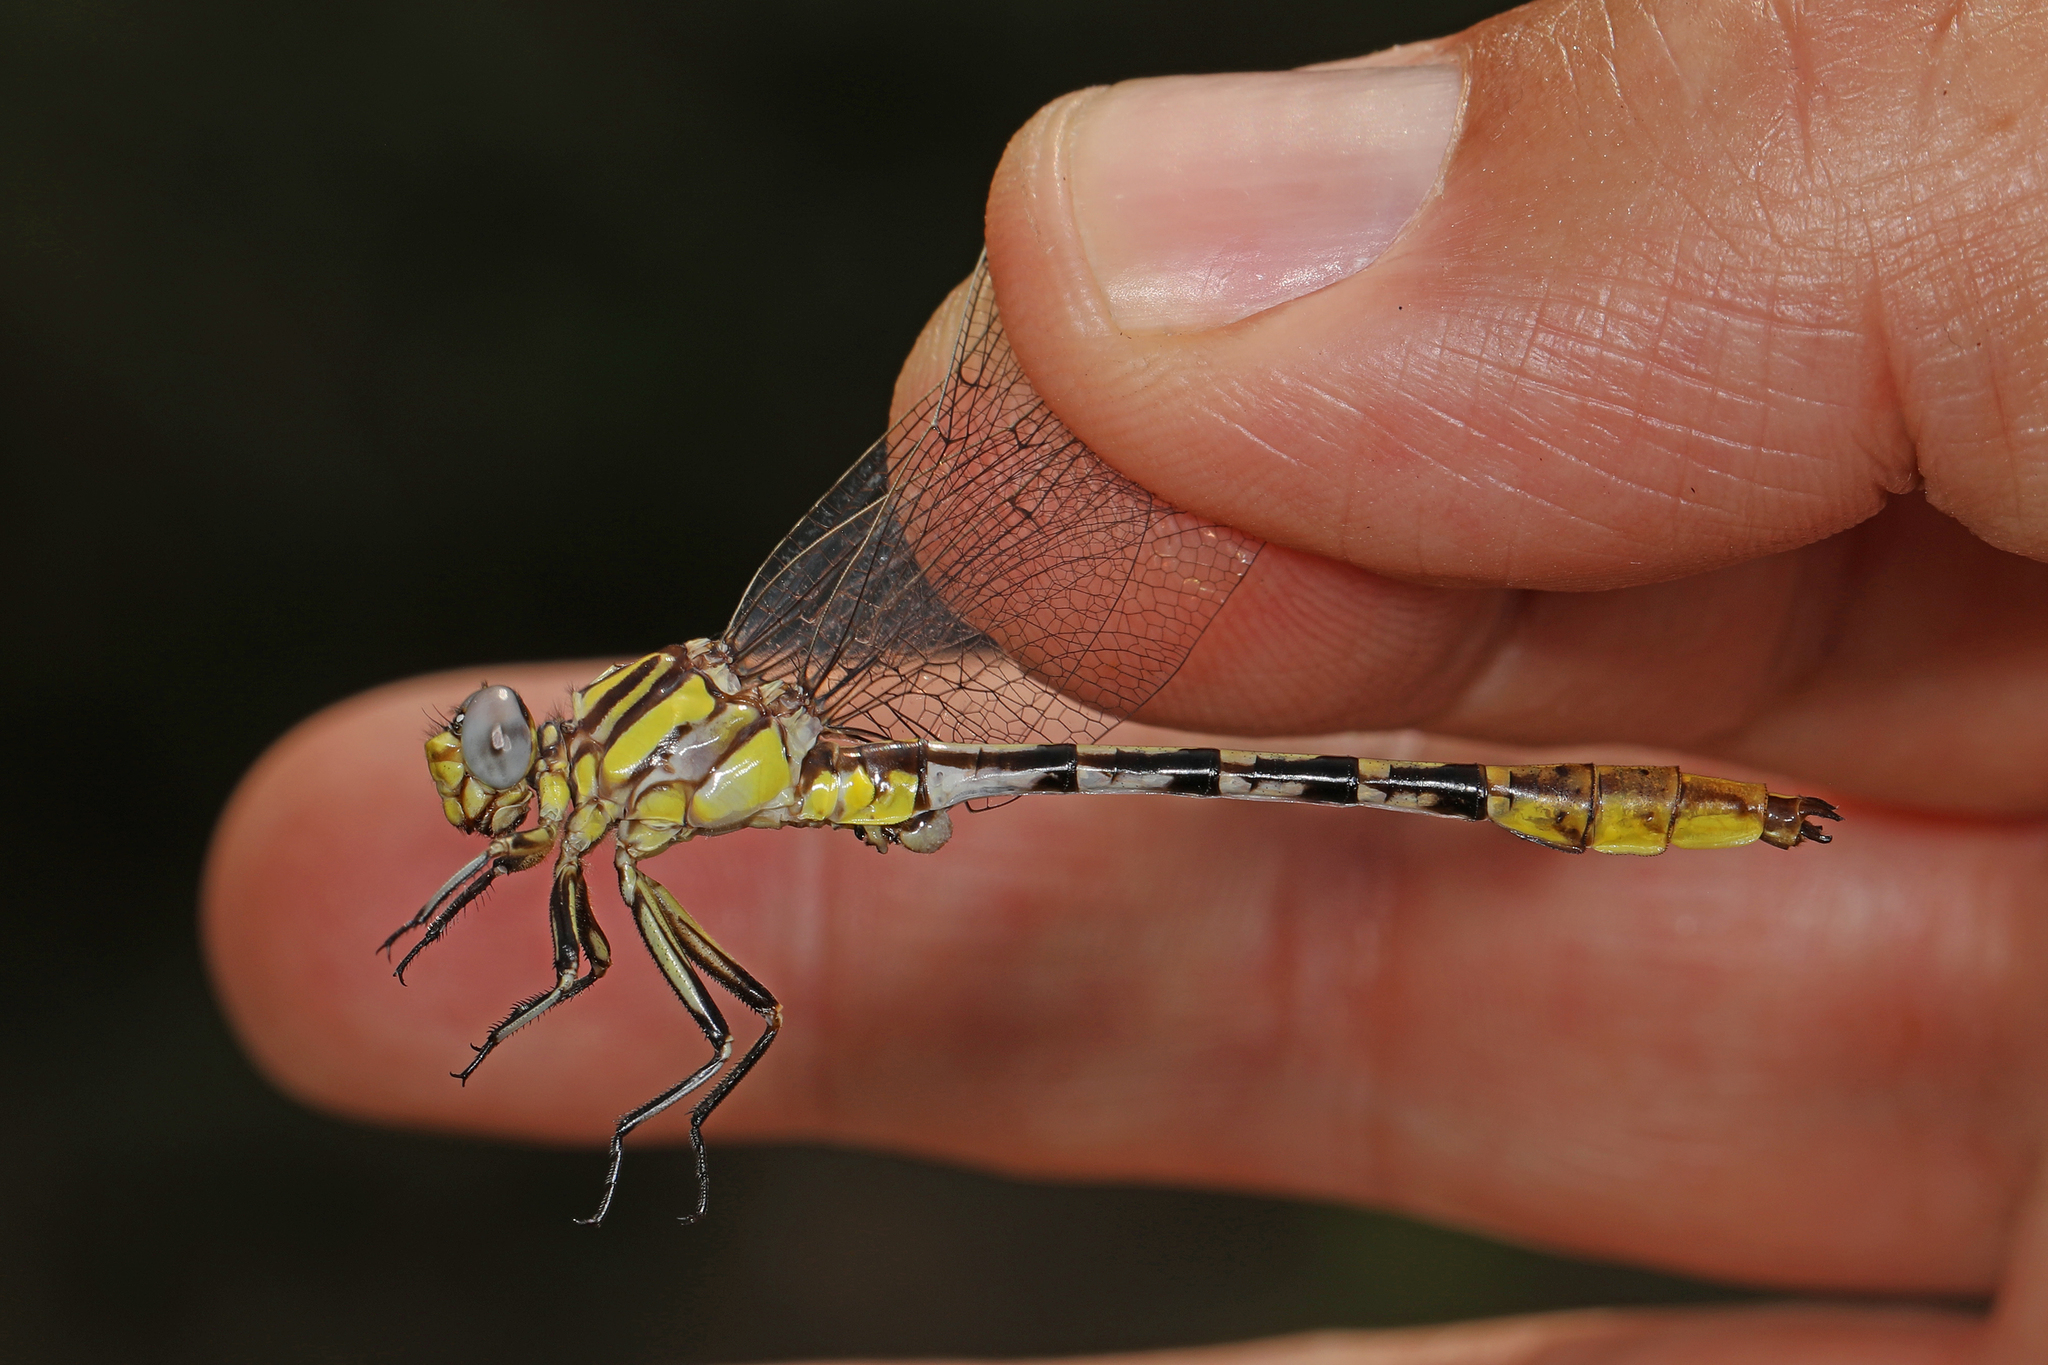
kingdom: Animalia
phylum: Arthropoda
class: Insecta
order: Odonata
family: Gomphidae
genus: Phanogomphus
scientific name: Phanogomphus militaris
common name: Sulphur-tipped clubtail
